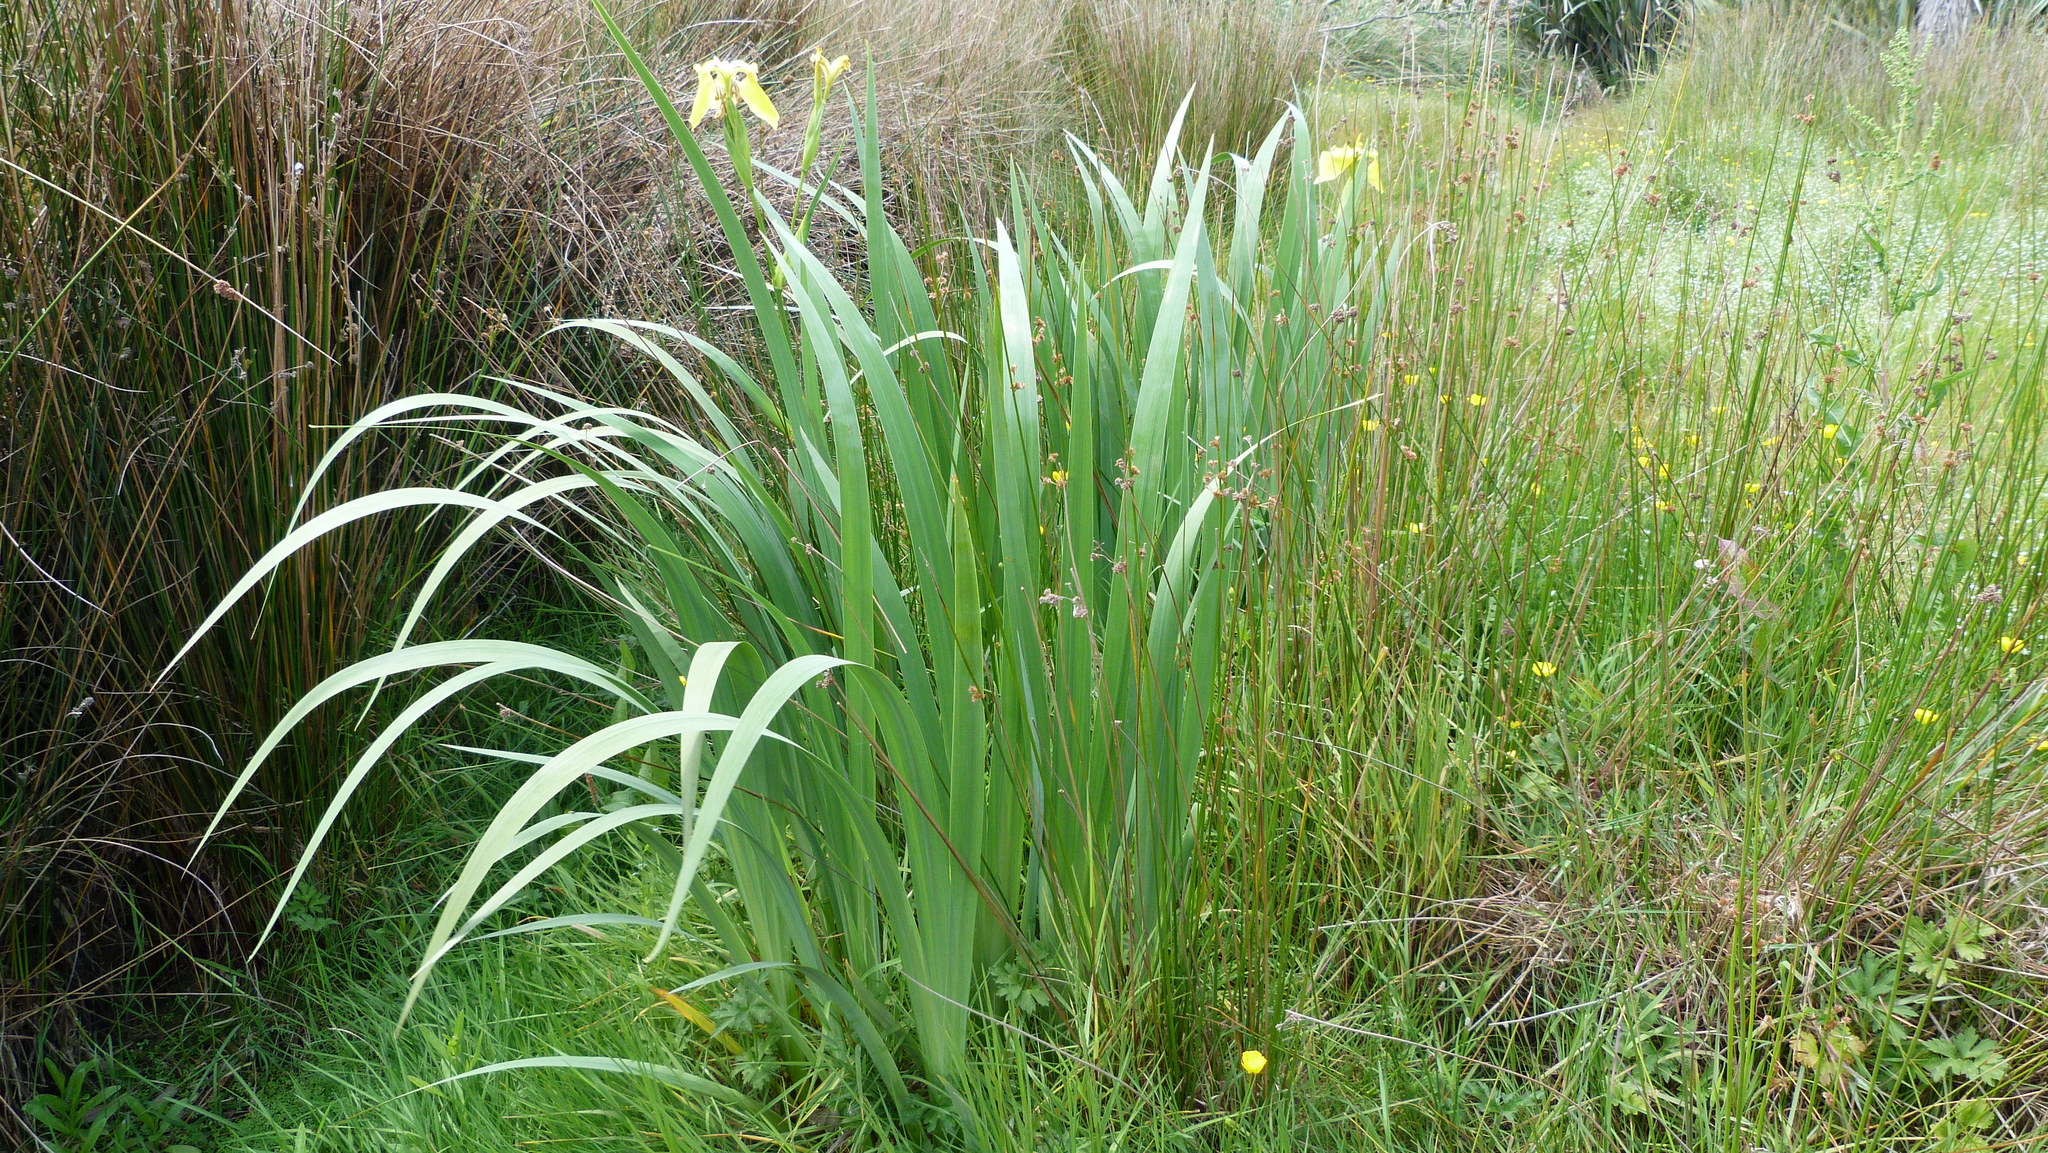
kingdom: Plantae
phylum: Tracheophyta
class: Liliopsida
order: Asparagales
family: Iridaceae
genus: Iris
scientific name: Iris pseudacorus
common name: Yellow flag
